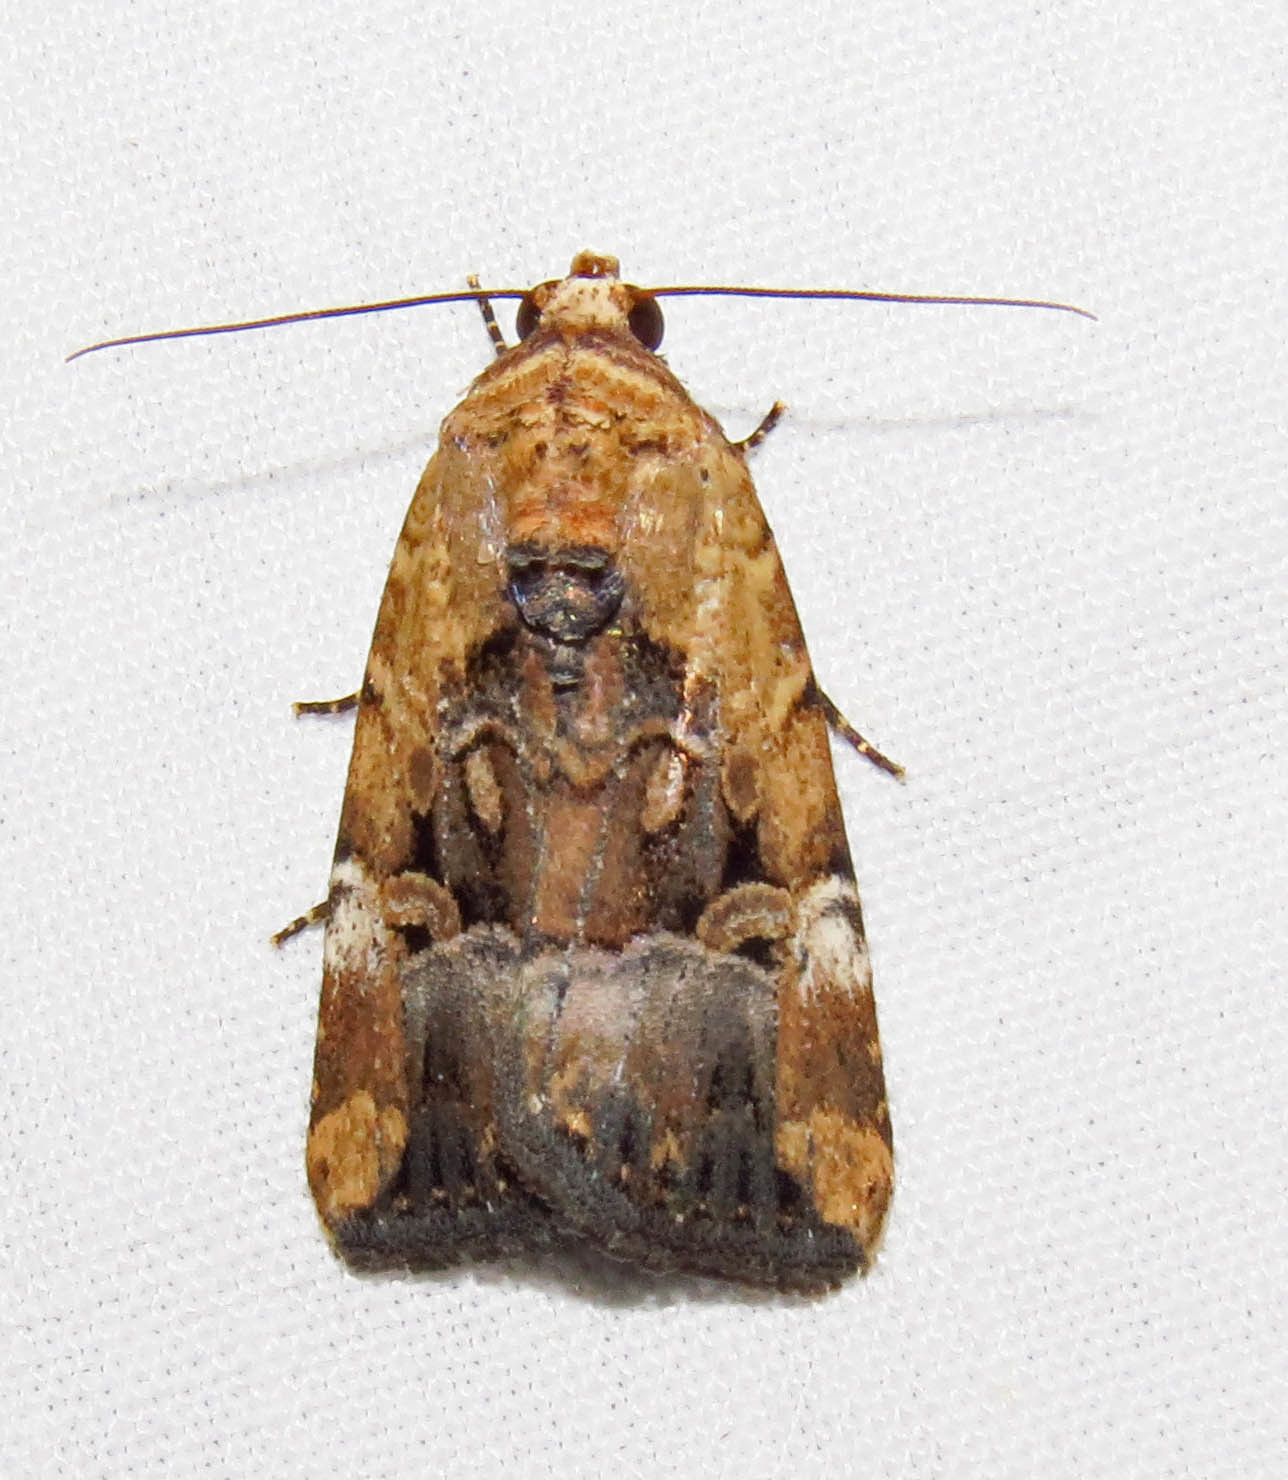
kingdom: Animalia
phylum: Arthropoda
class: Insecta
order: Lepidoptera
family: Noctuidae
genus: Elaphria
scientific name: Elaphria chalcedonia
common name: Chalcedony midget
